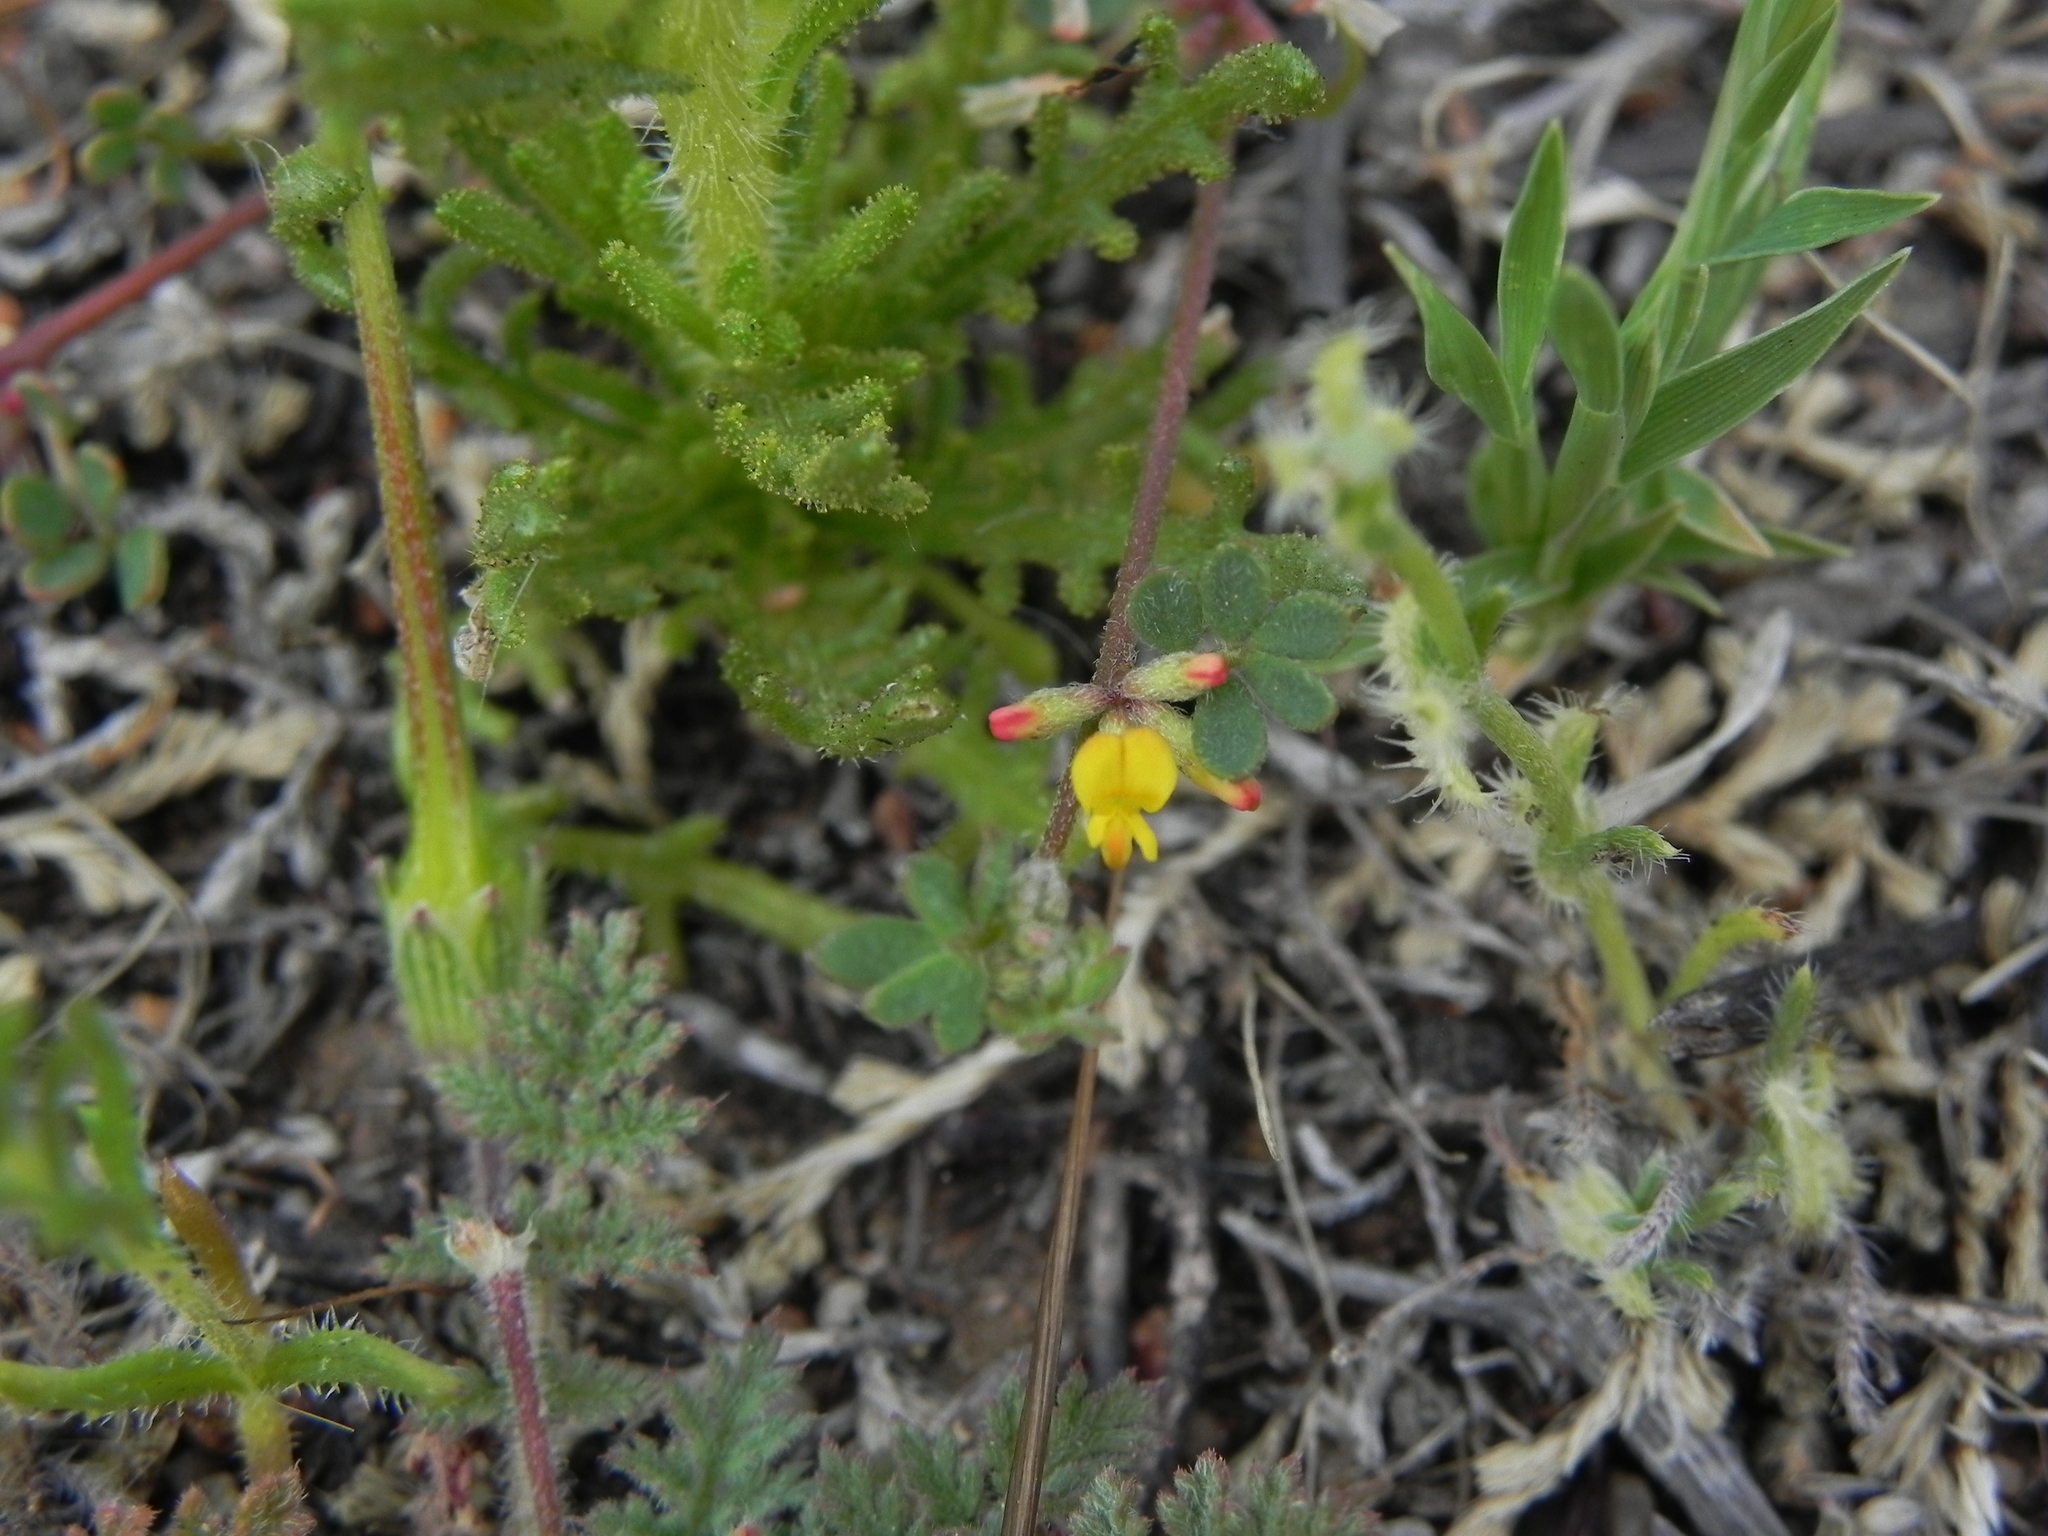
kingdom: Plantae
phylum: Tracheophyta
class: Magnoliopsida
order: Fabales
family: Fabaceae
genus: Acmispon
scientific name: Acmispon micranthus
